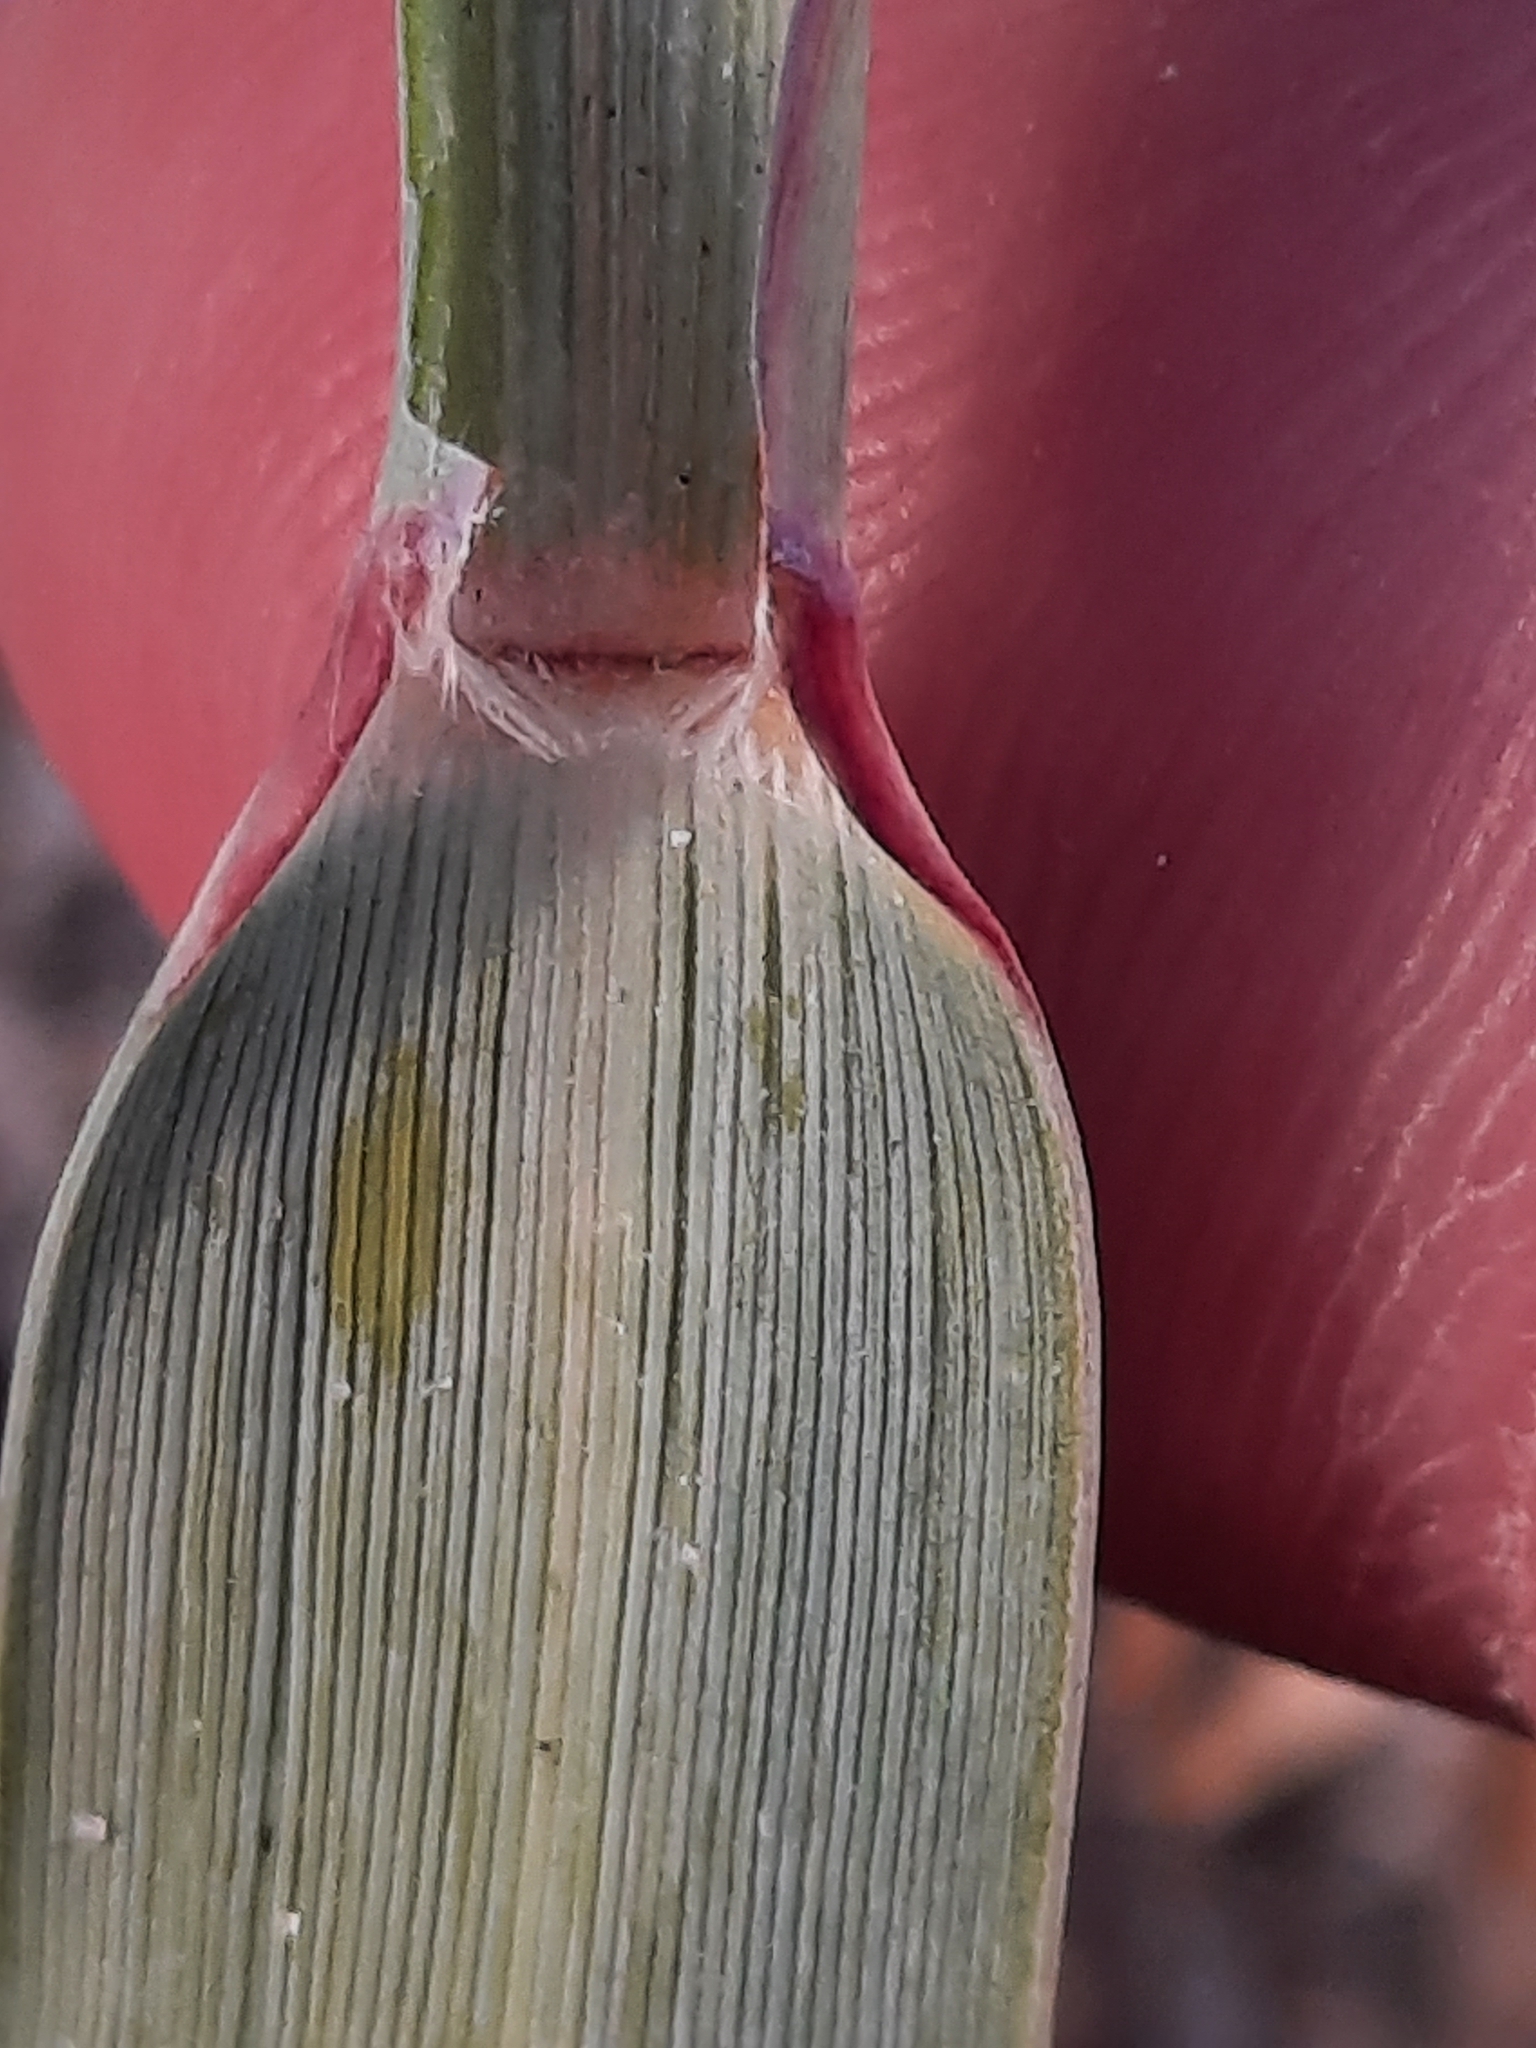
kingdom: Plantae
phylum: Tracheophyta
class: Liliopsida
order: Poales
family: Poaceae
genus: Panicum
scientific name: Panicum amarum
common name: Bitter panicum
